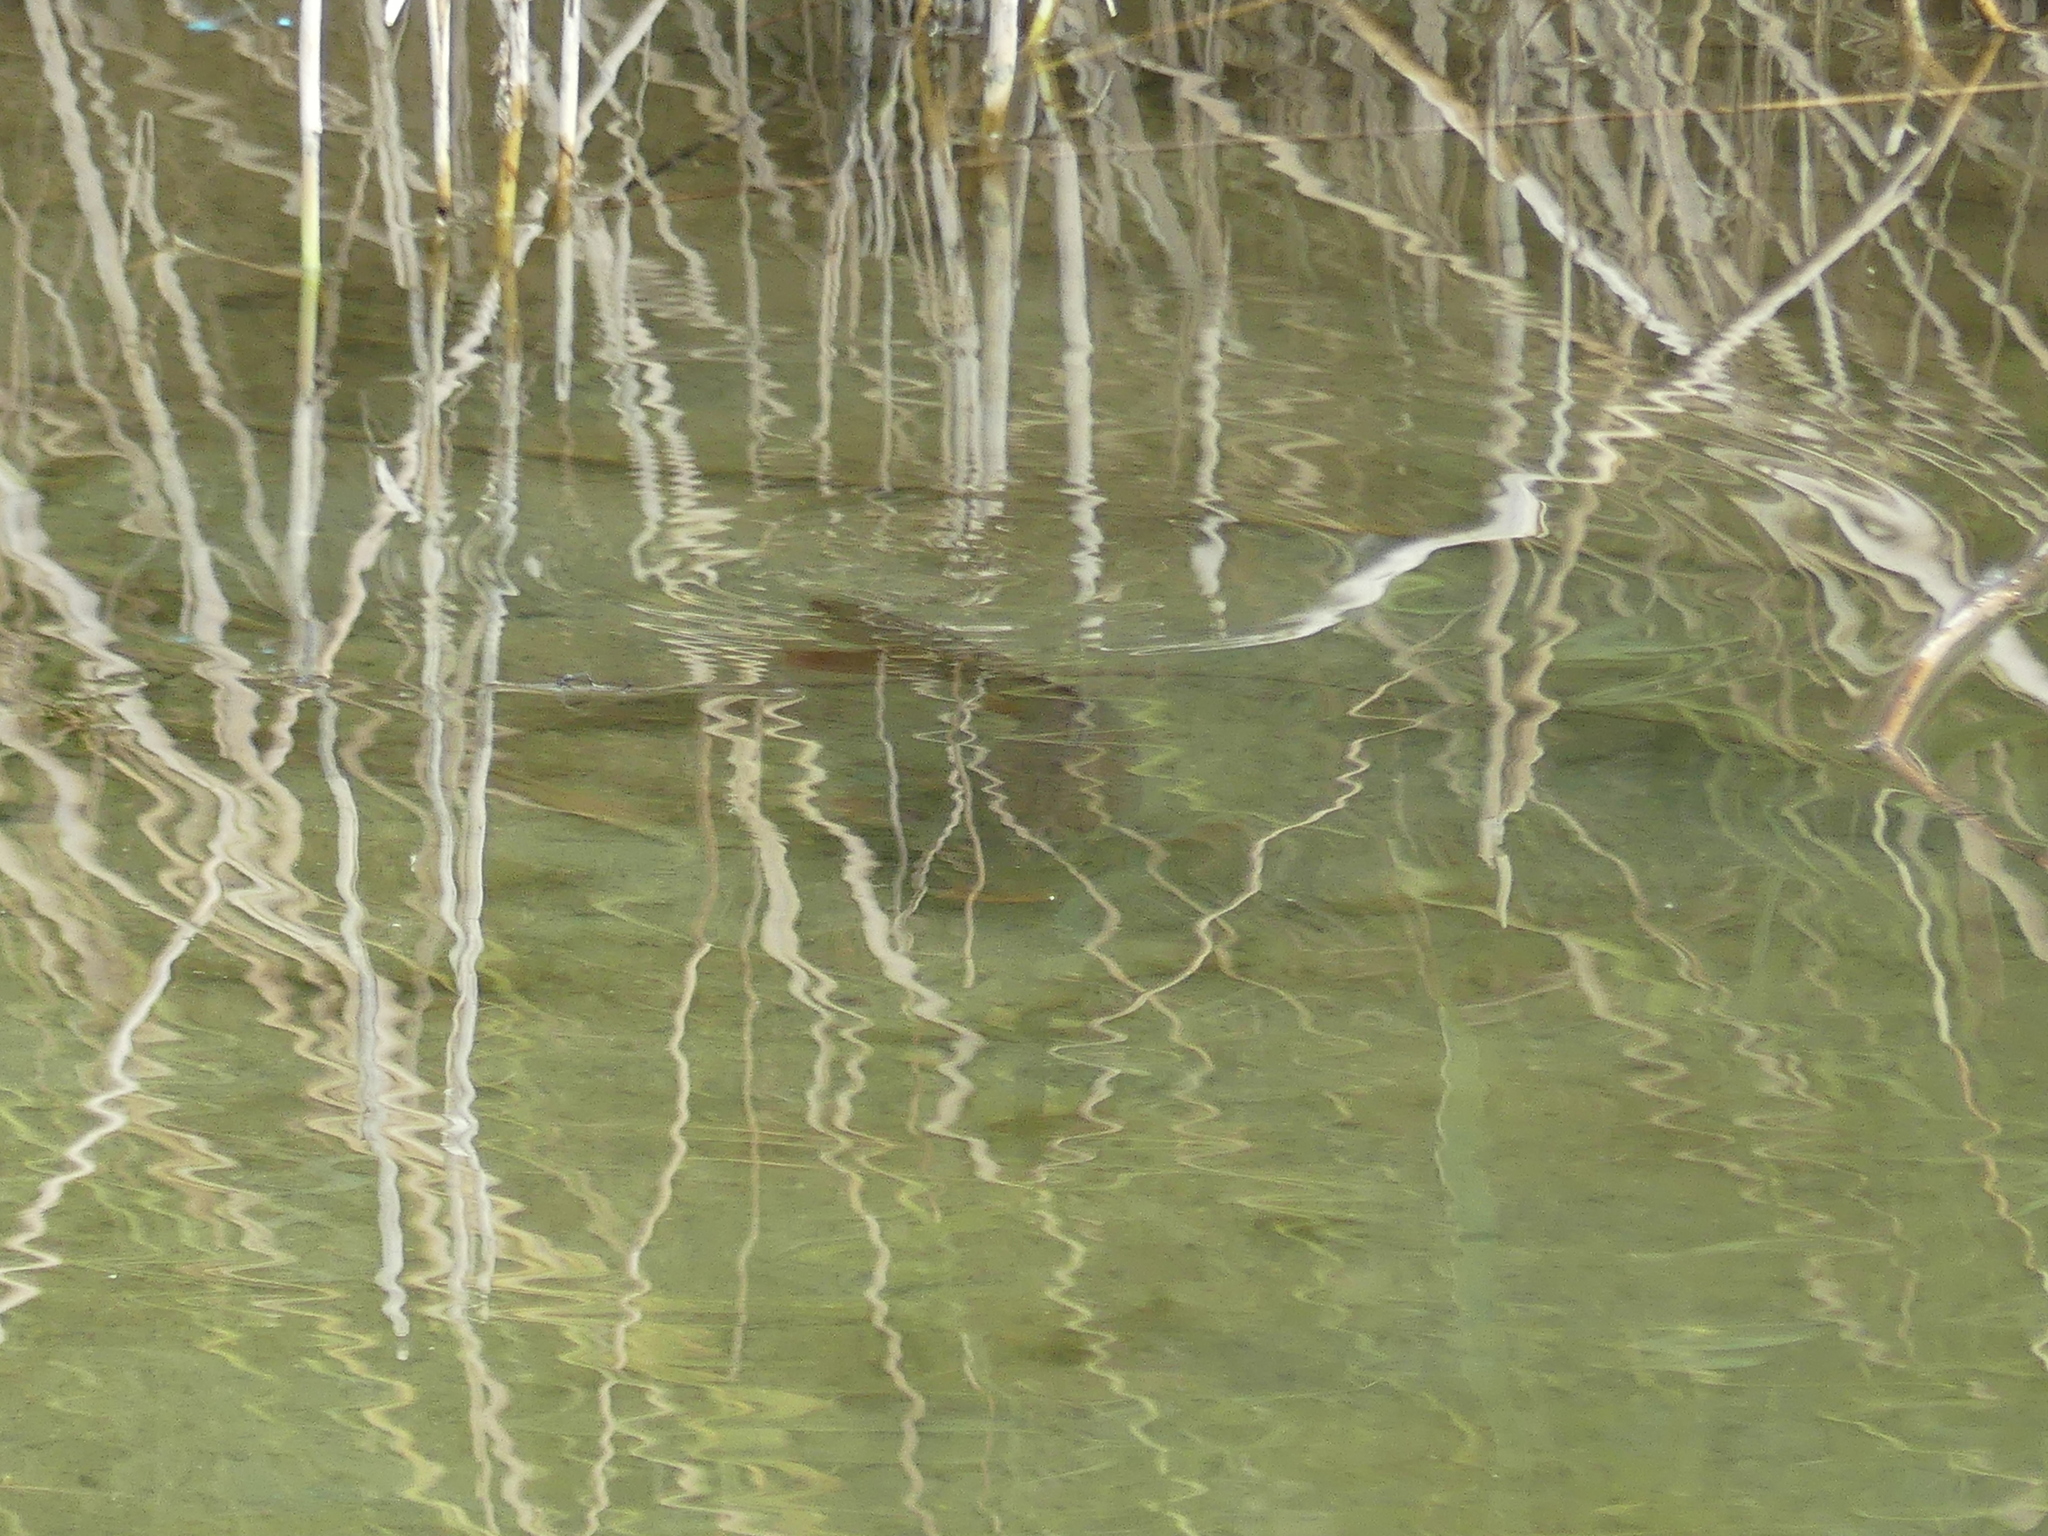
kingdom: Animalia
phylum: Chordata
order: Cypriniformes
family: Cyprinidae
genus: Cyprinus
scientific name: Cyprinus carpio
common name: Common carp
